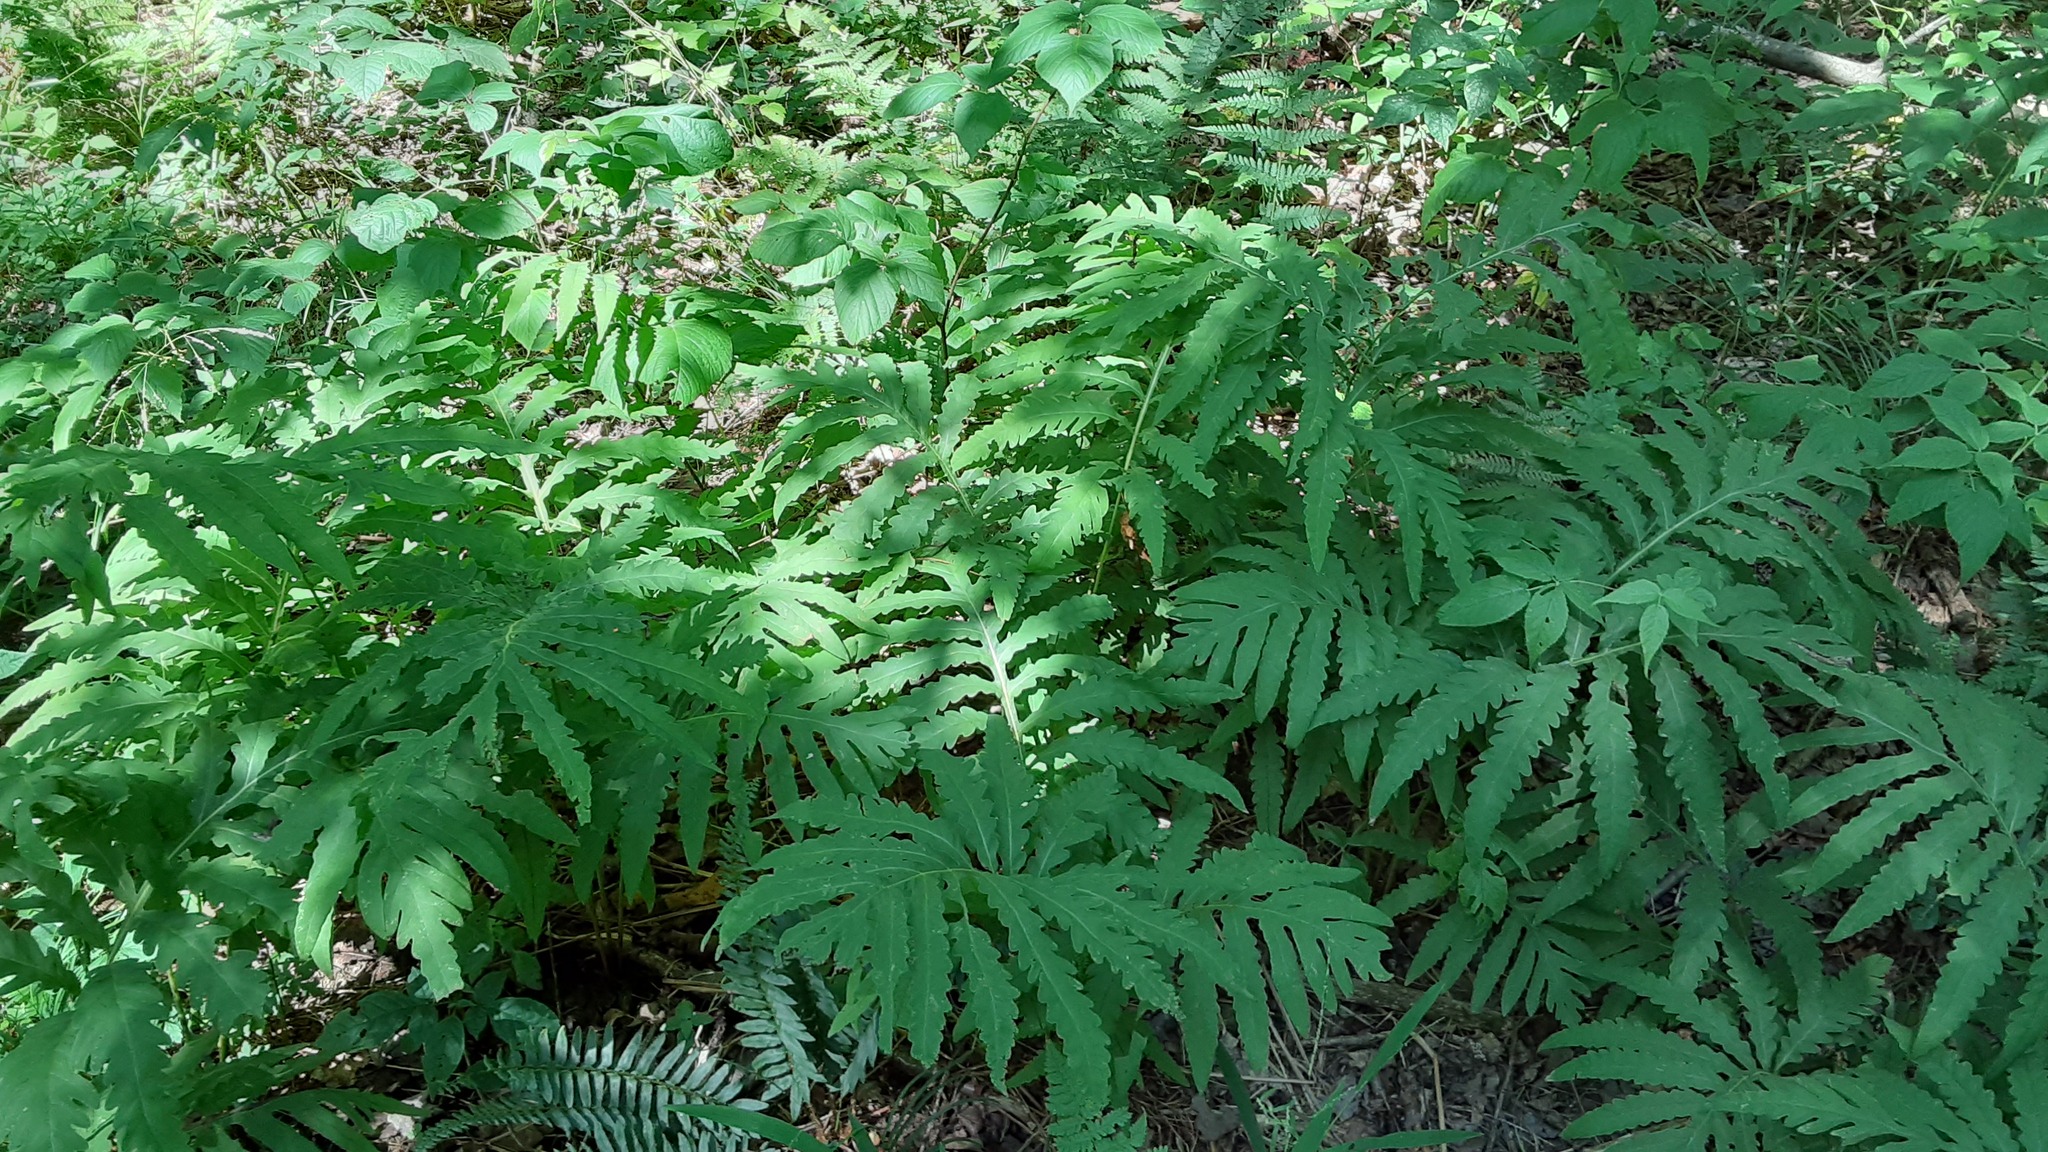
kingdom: Plantae
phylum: Tracheophyta
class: Polypodiopsida
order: Polypodiales
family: Onocleaceae
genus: Onoclea
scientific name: Onoclea sensibilis
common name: Sensitive fern
